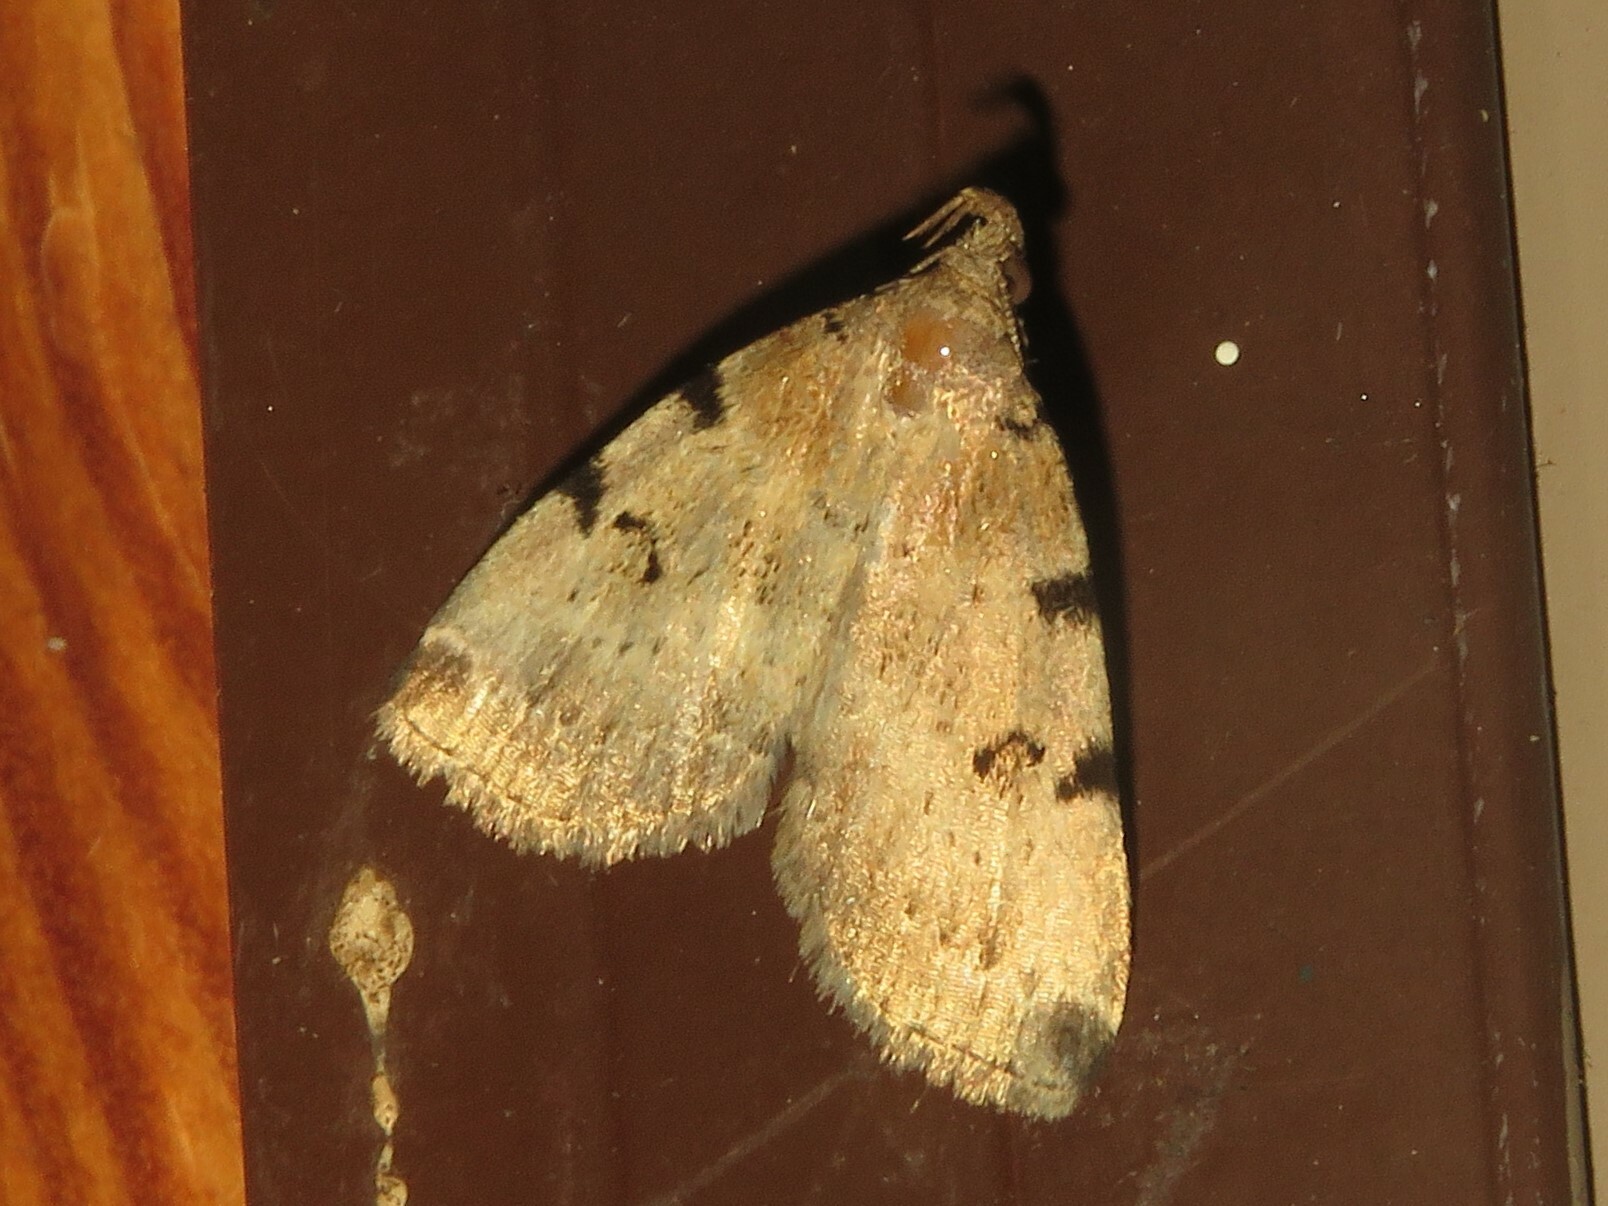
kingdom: Animalia
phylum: Arthropoda
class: Insecta
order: Lepidoptera
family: Erebidae
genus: Zanclognatha
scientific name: Zanclognatha lituralis
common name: Lettered fan-foot
